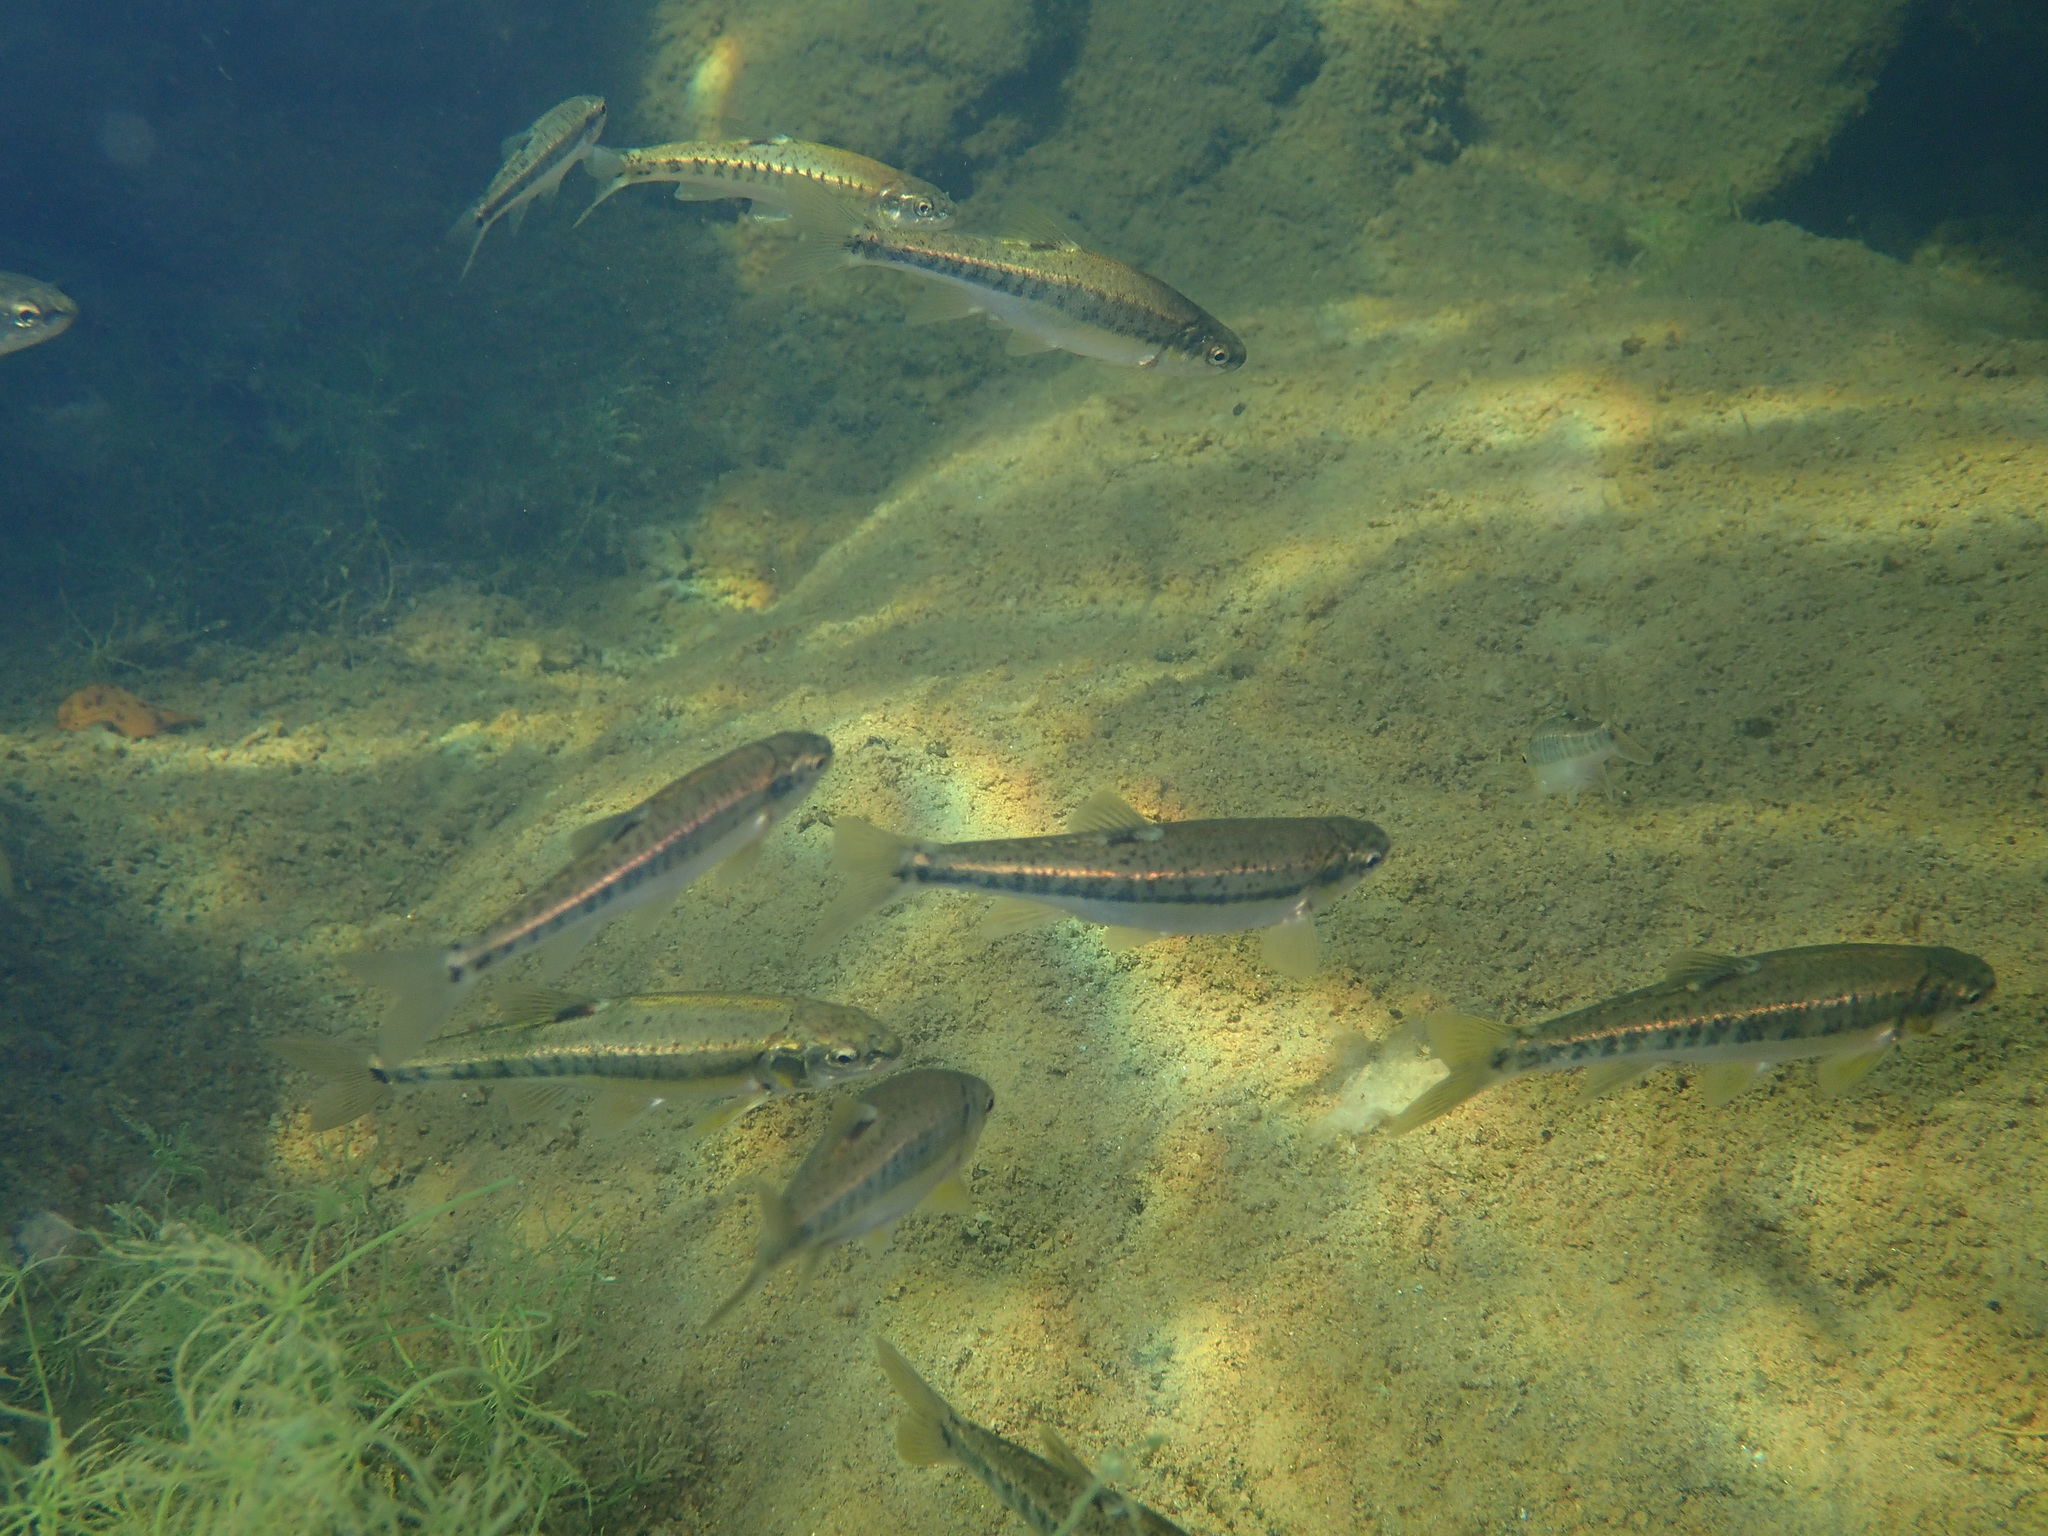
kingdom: Animalia
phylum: Chordata
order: Cypriniformes
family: Cyprinidae
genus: Phoxinus
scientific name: Phoxinus phoxinus
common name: Minnow
